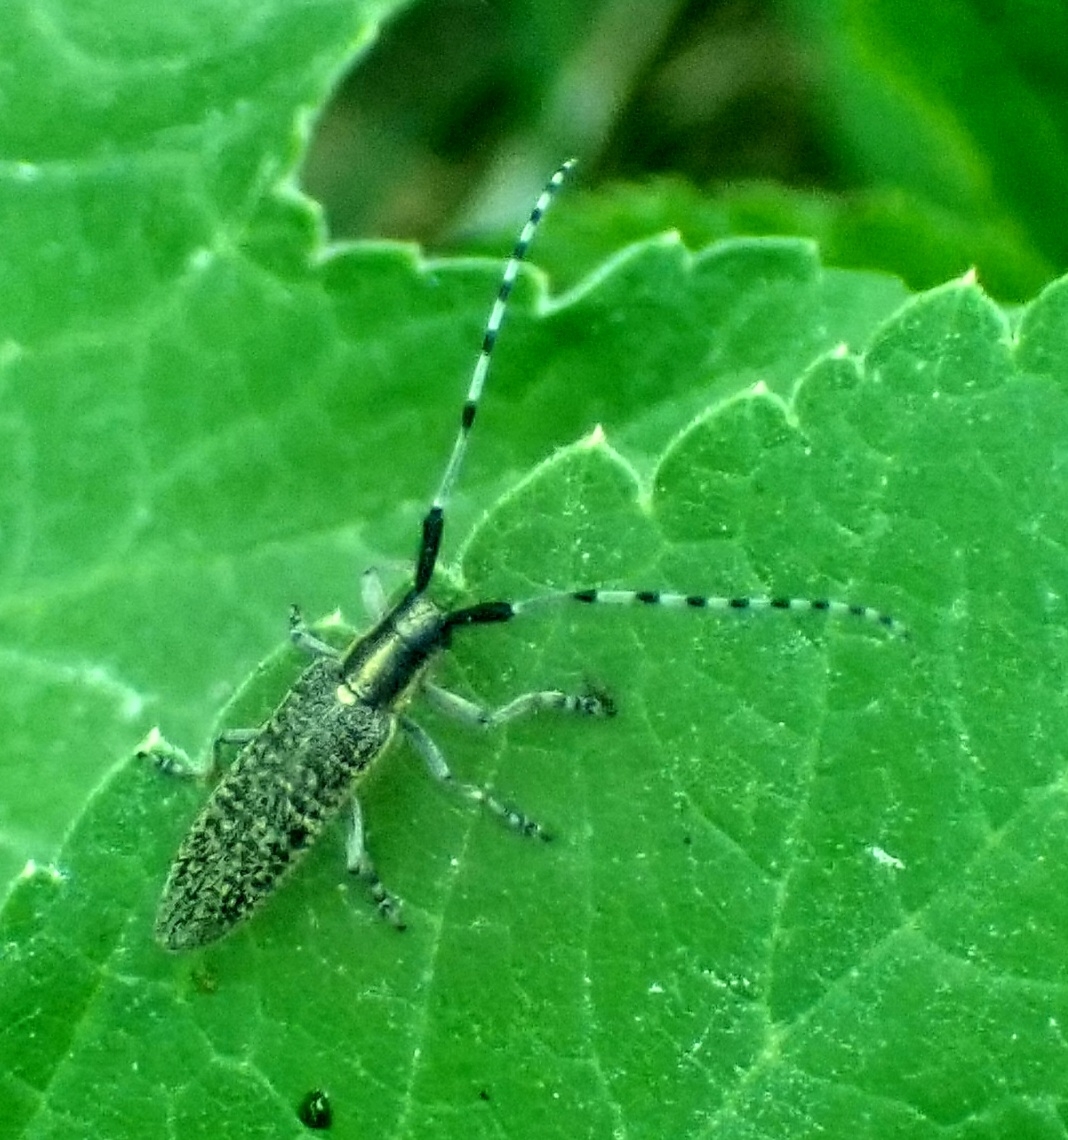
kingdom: Animalia
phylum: Arthropoda
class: Insecta
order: Coleoptera
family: Cerambycidae
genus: Agapanthia
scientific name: Agapanthia villosoviridescens
